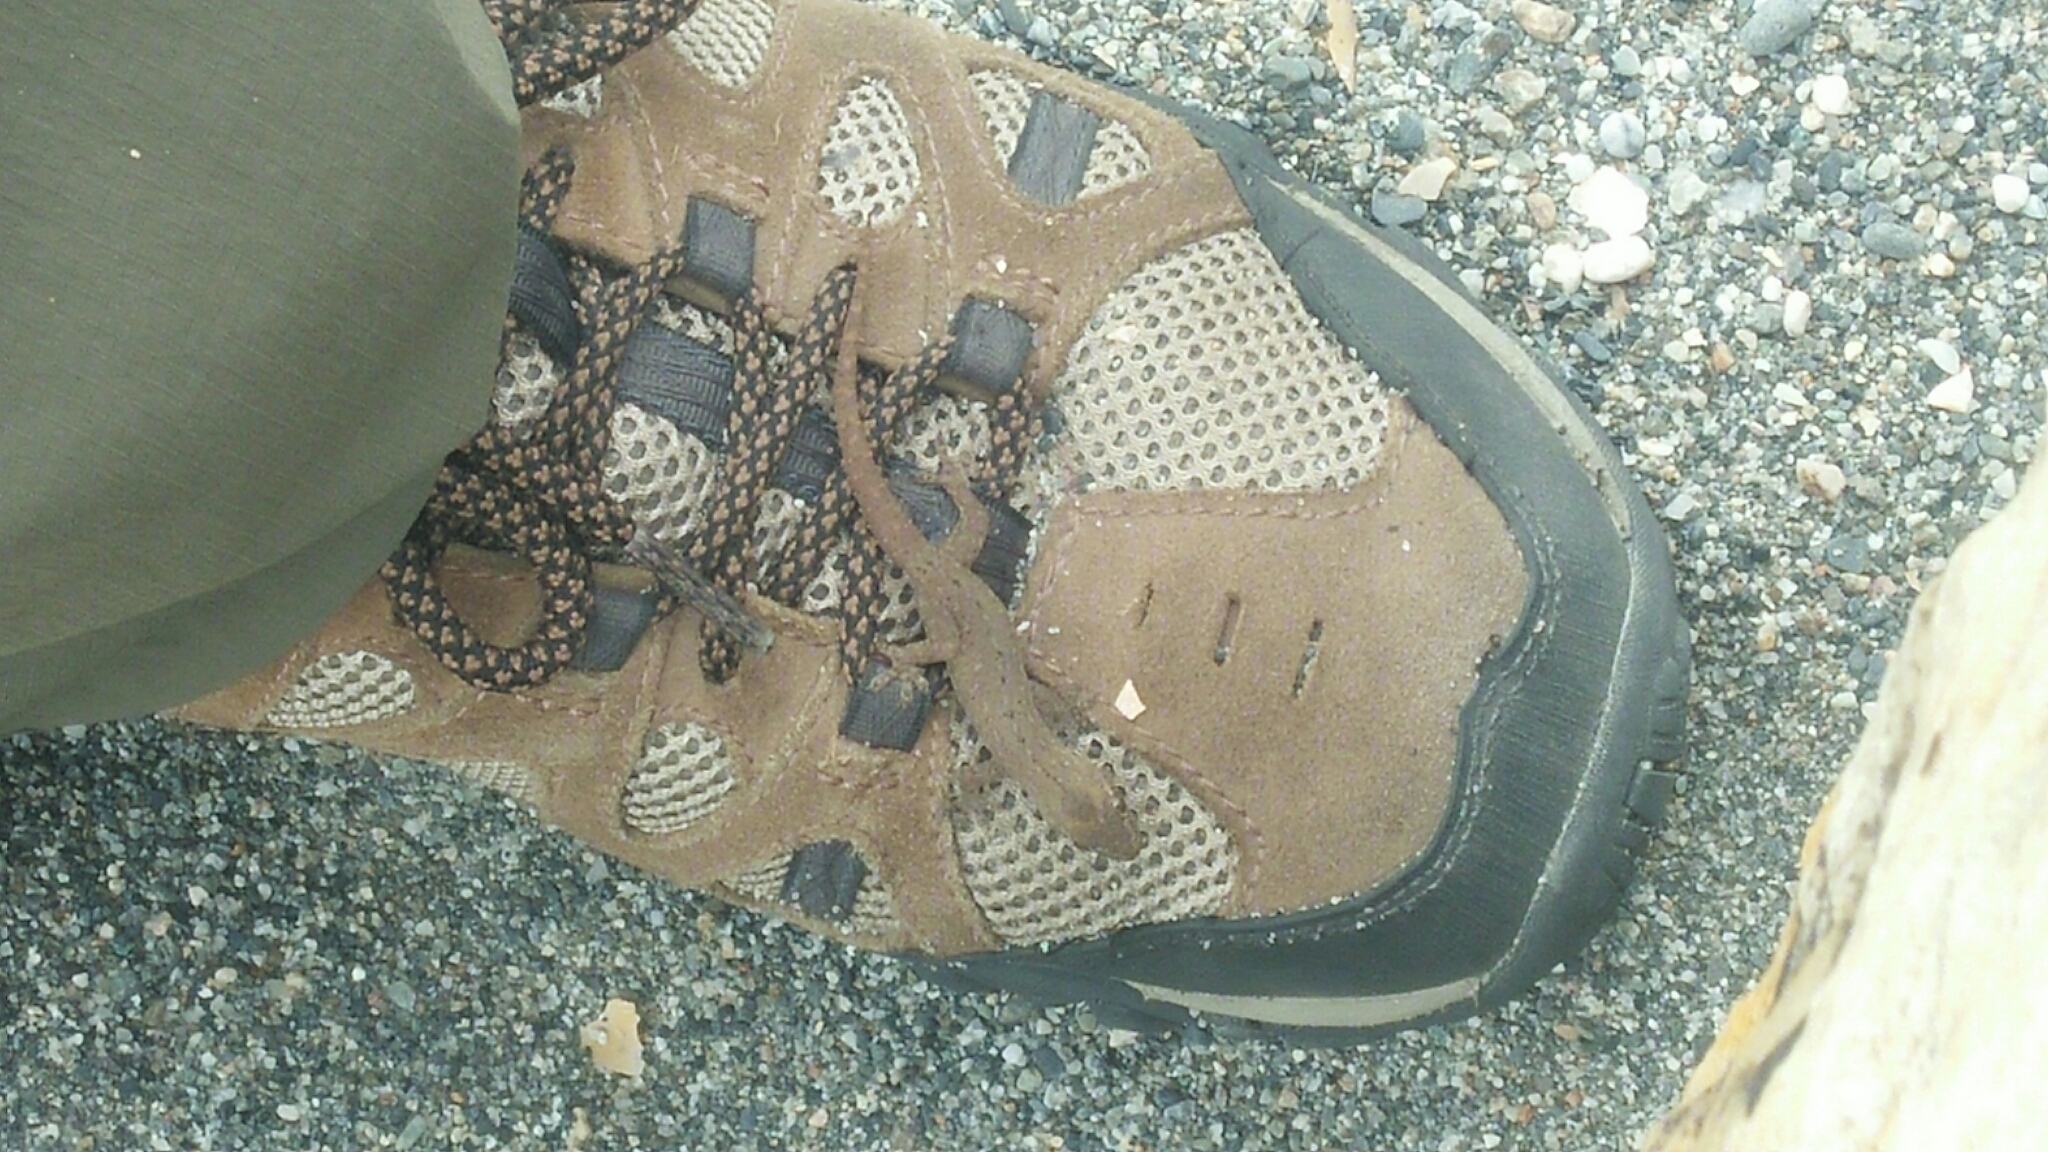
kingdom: Animalia
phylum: Chordata
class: Squamata
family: Gekkonidae
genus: Hemidactylus
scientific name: Hemidactylus frenatus
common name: Common house gecko
